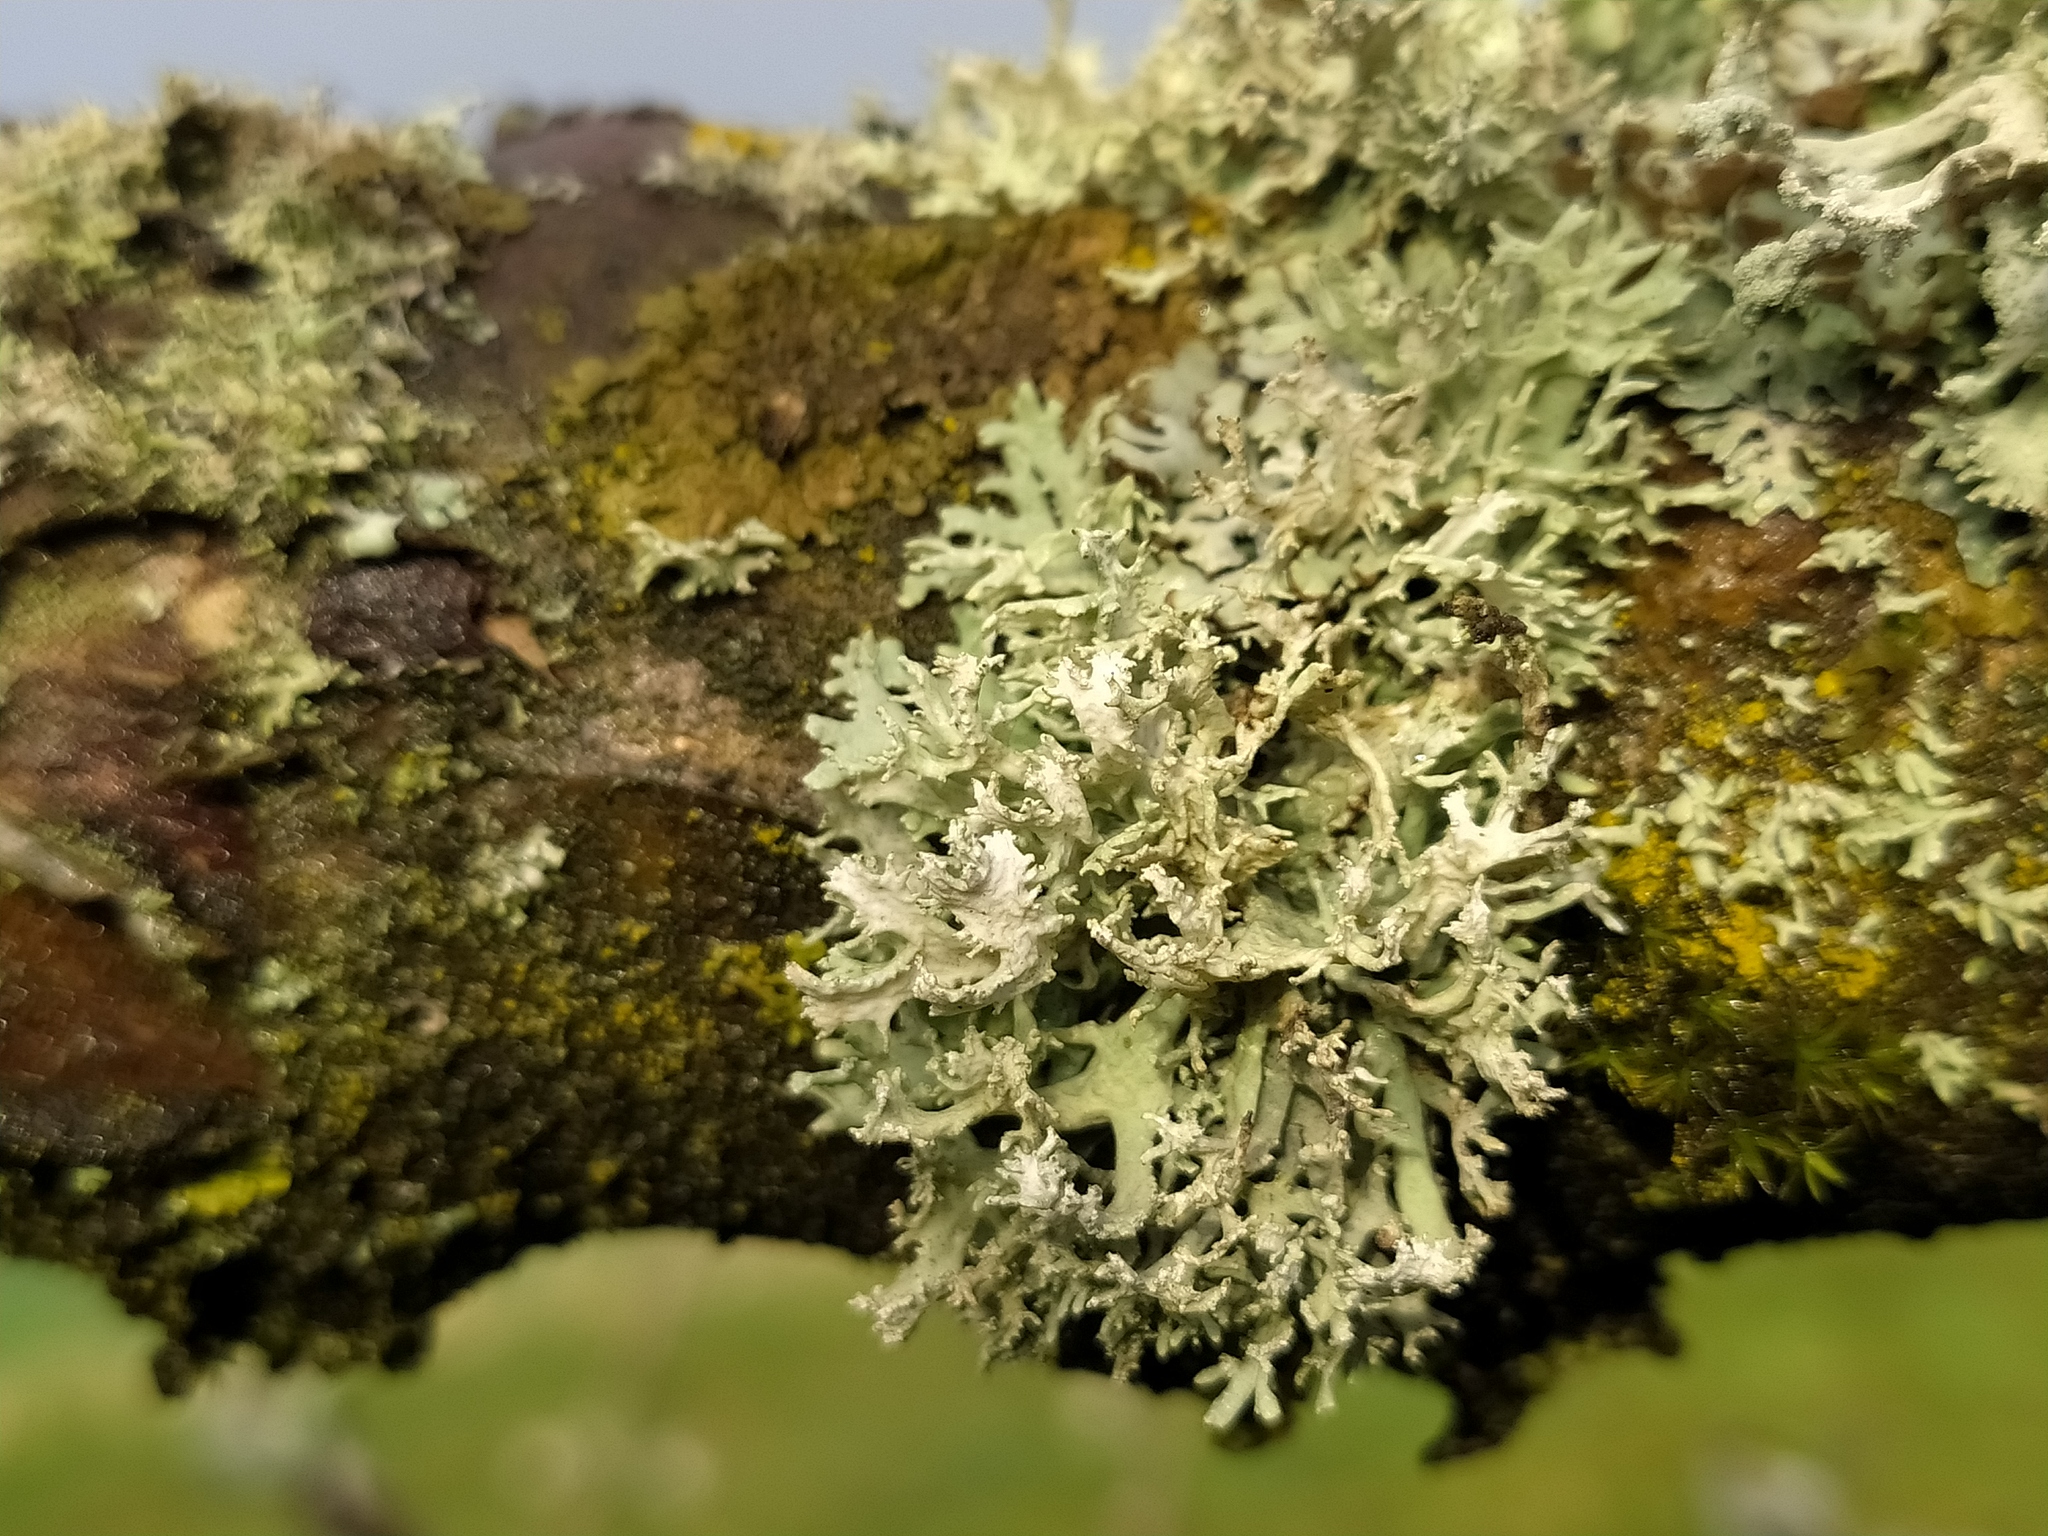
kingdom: Fungi
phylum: Ascomycota
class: Lecanoromycetes
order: Lecanorales
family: Parmeliaceae
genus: Evernia
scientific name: Evernia prunastri
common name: Oak moss
